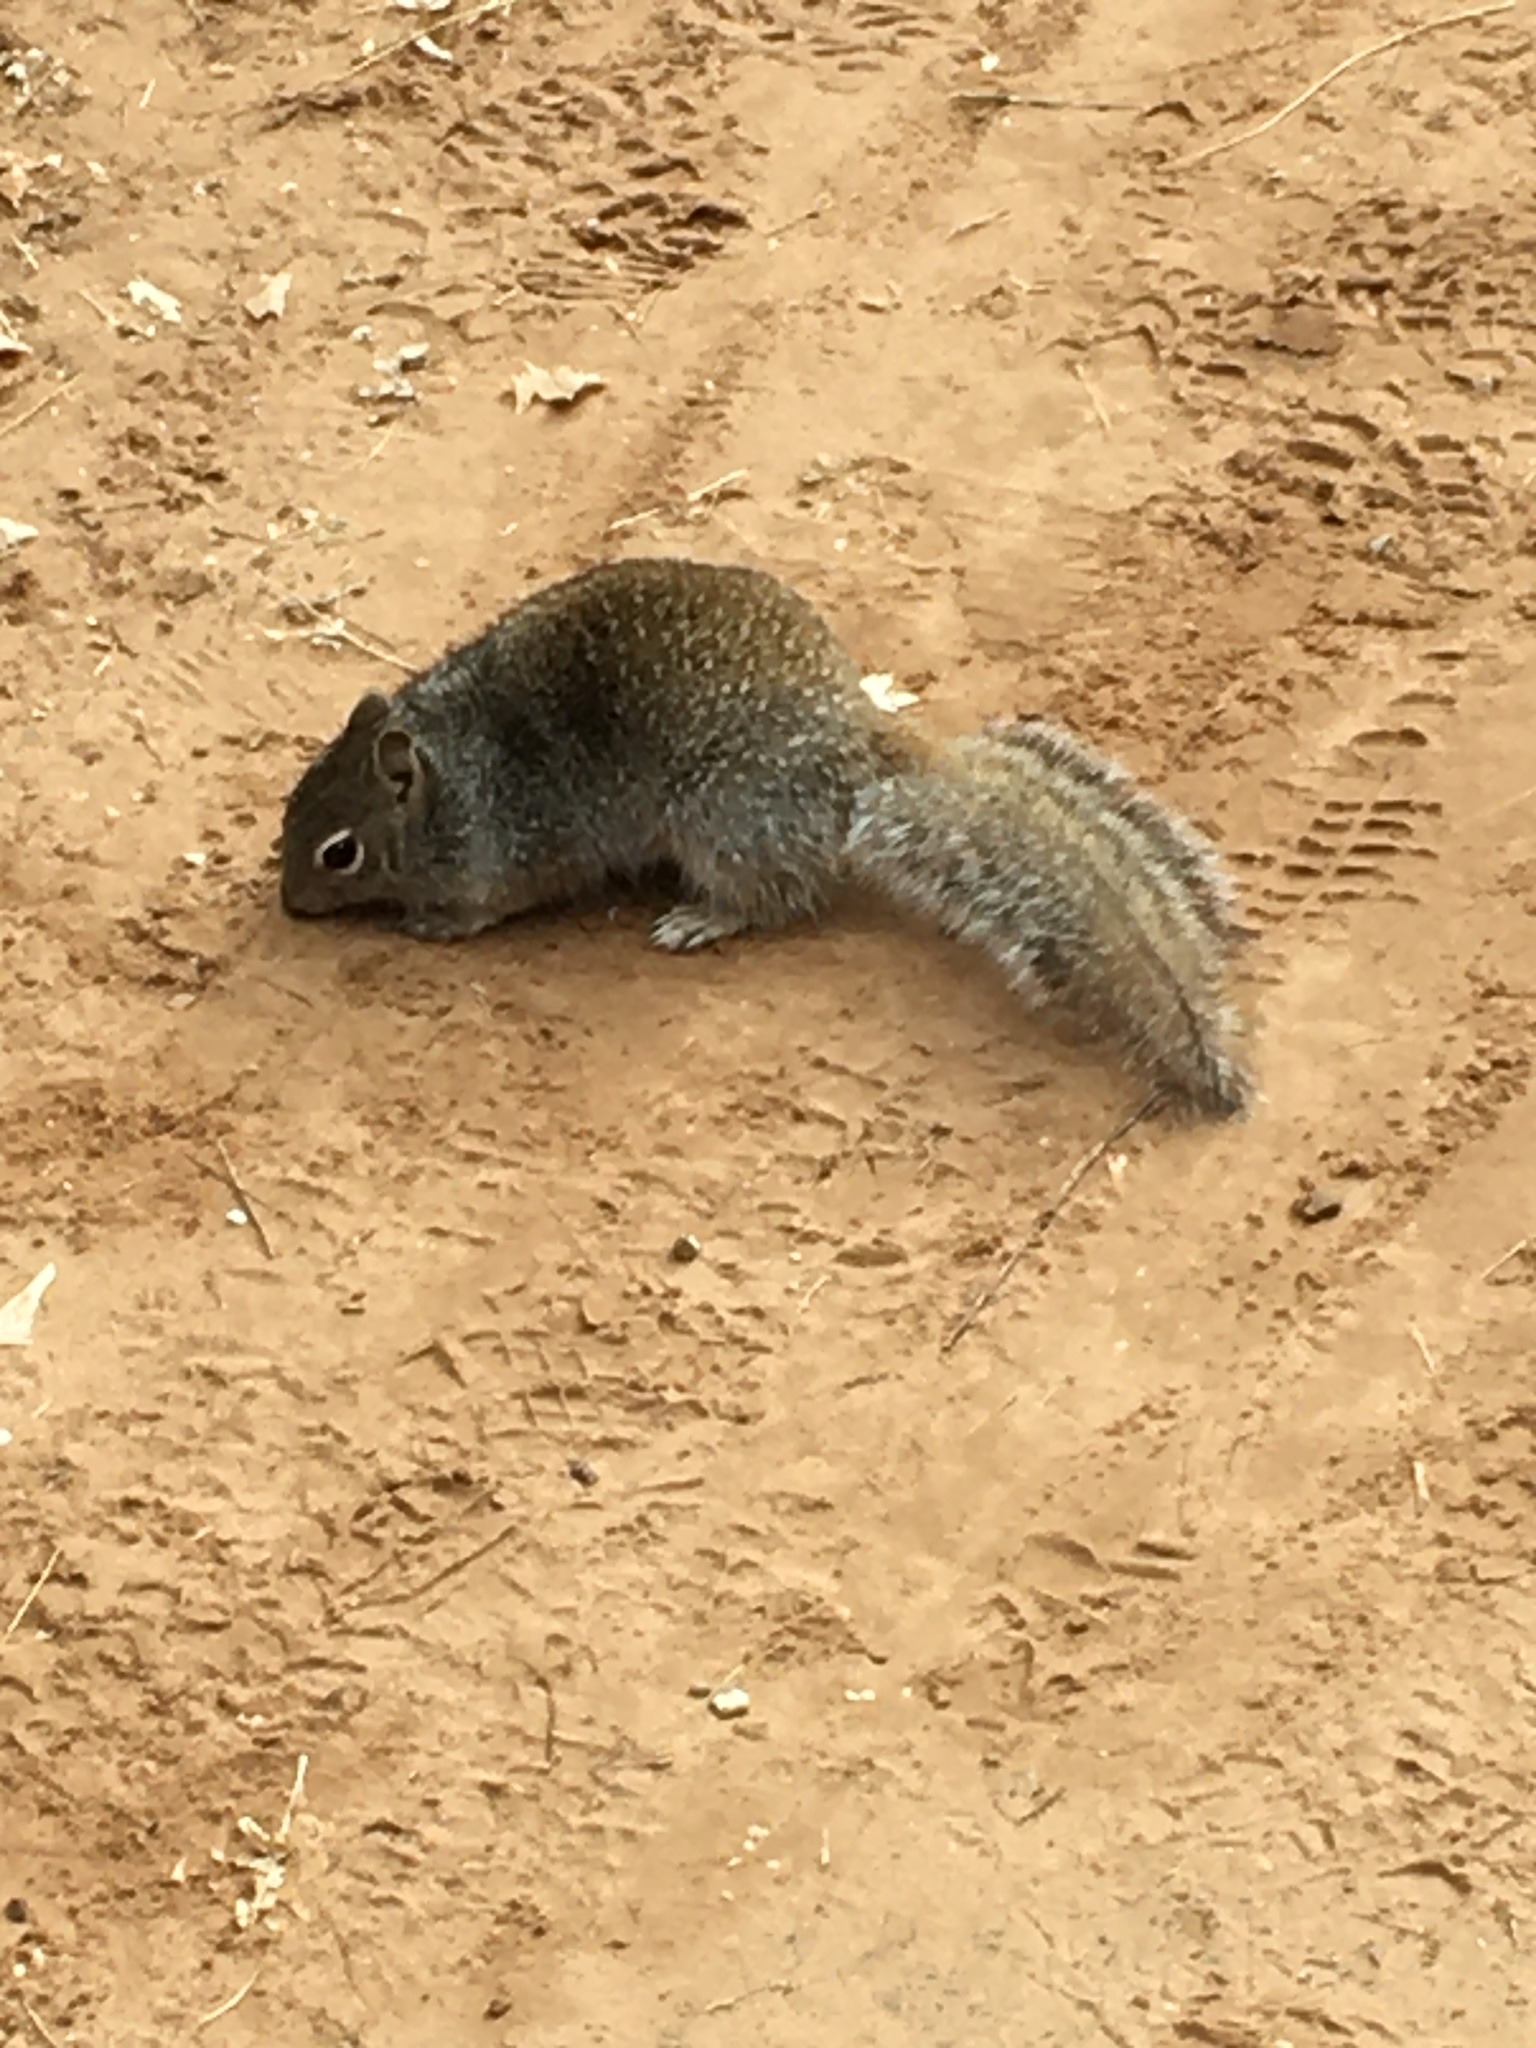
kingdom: Animalia
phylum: Chordata
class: Mammalia
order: Rodentia
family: Sciuridae
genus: Otospermophilus
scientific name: Otospermophilus variegatus
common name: Rock squirrel
